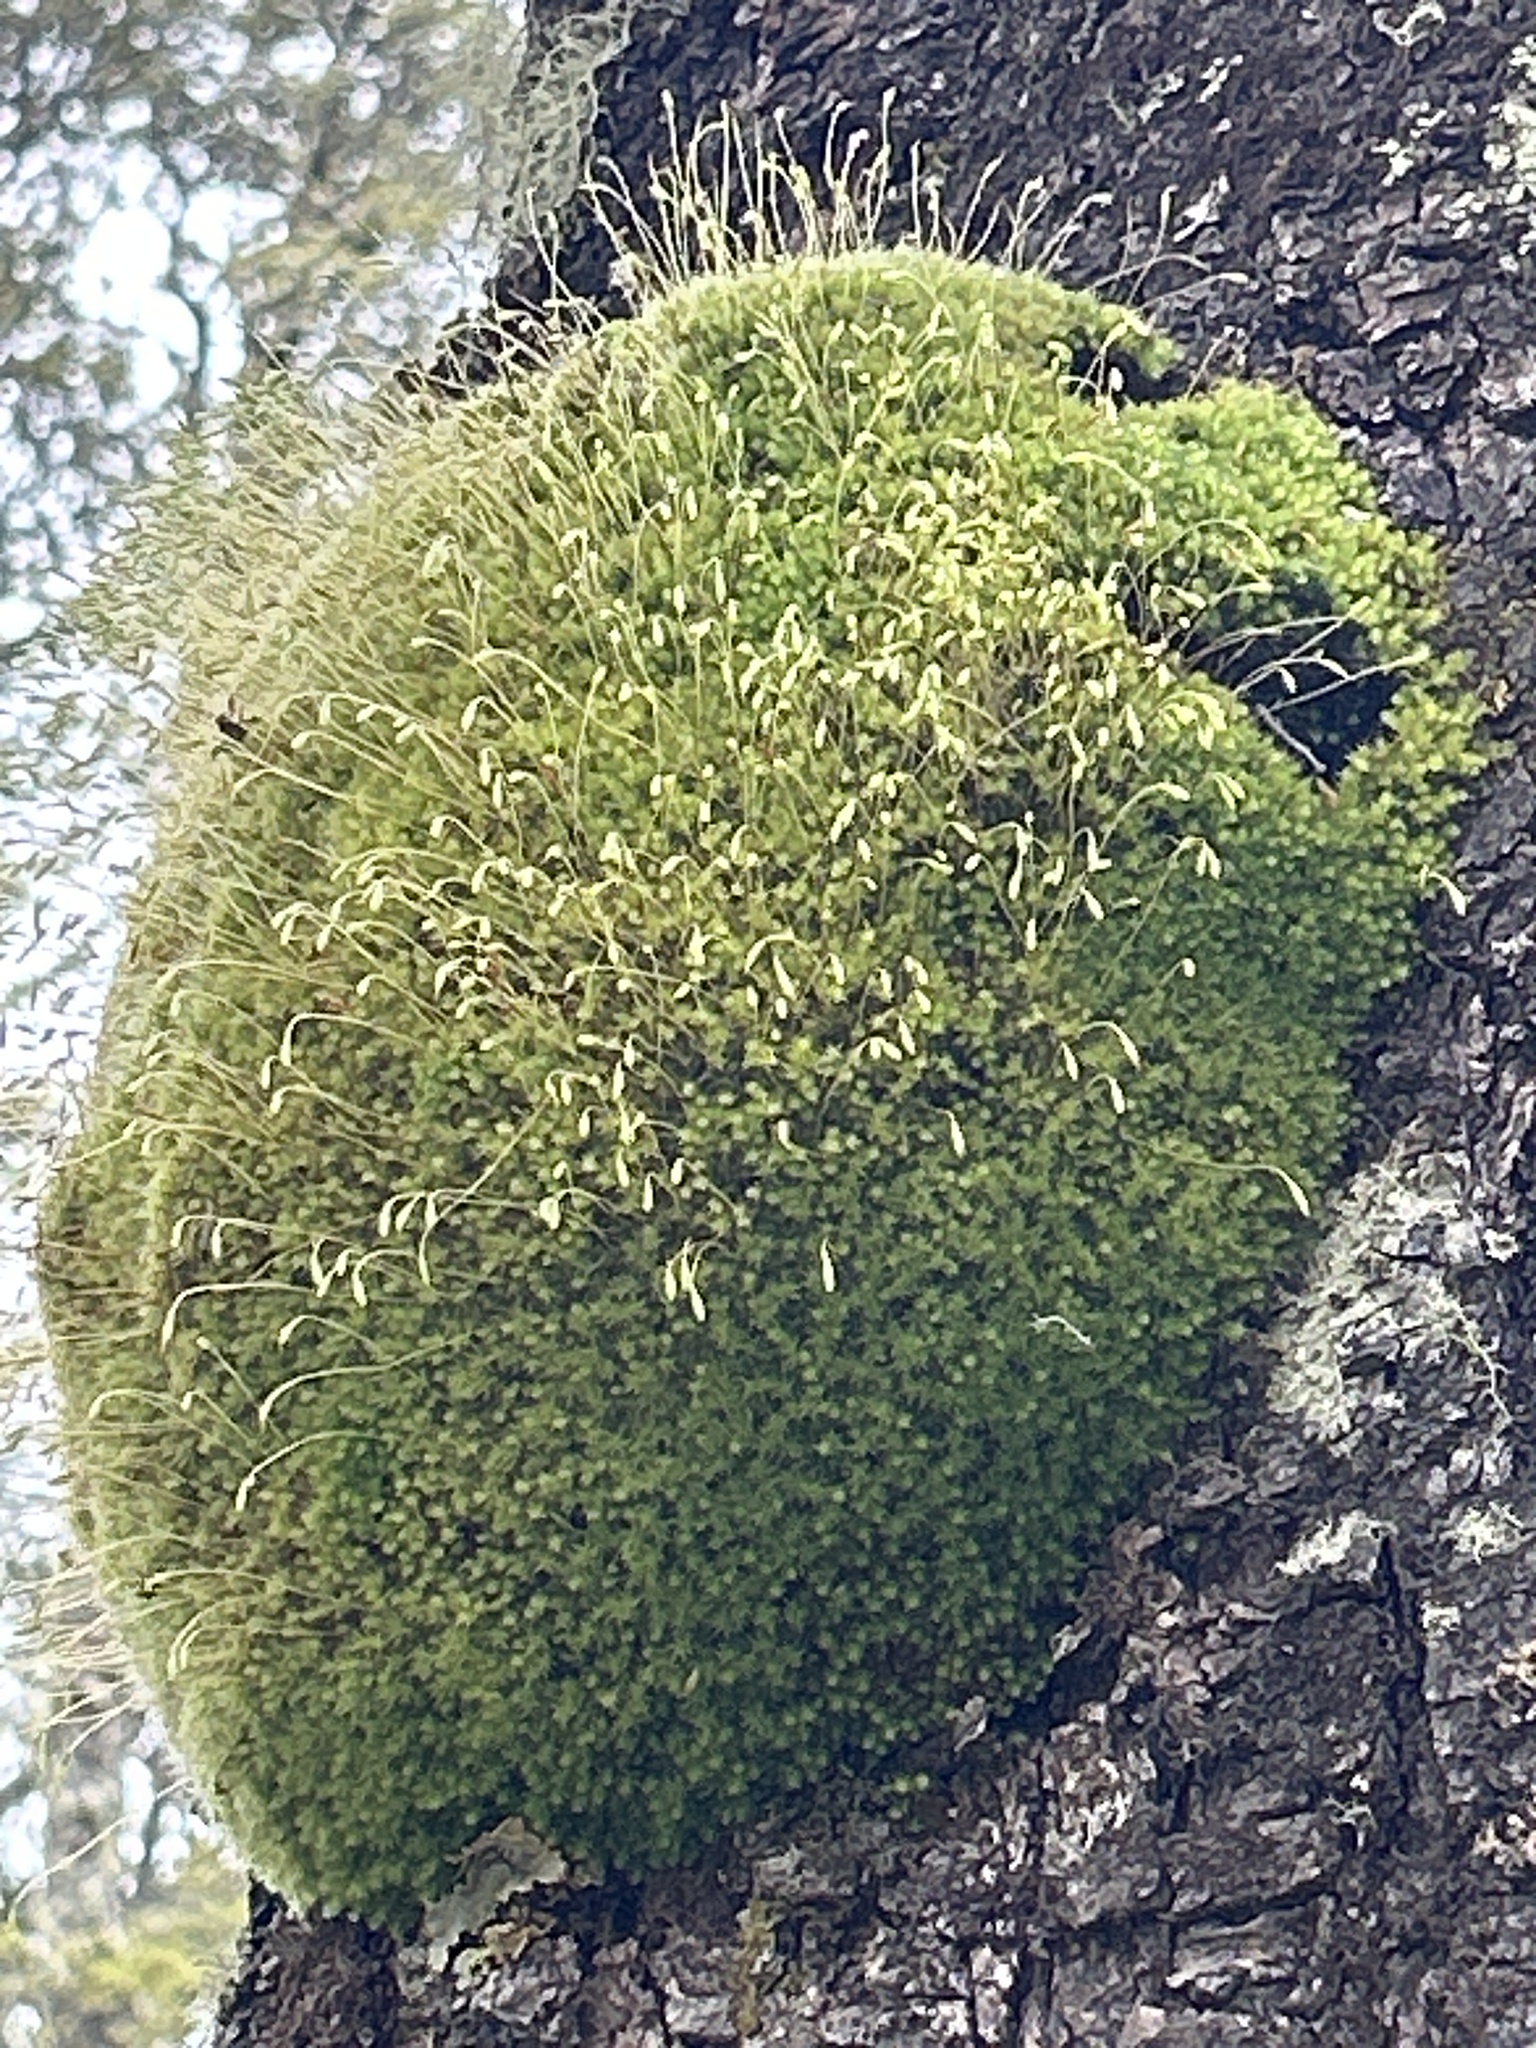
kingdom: Plantae
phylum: Bryophyta
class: Bryopsida
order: Bryales
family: Leptostomataceae
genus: Leptostomum
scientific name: Leptostomum inclinans
